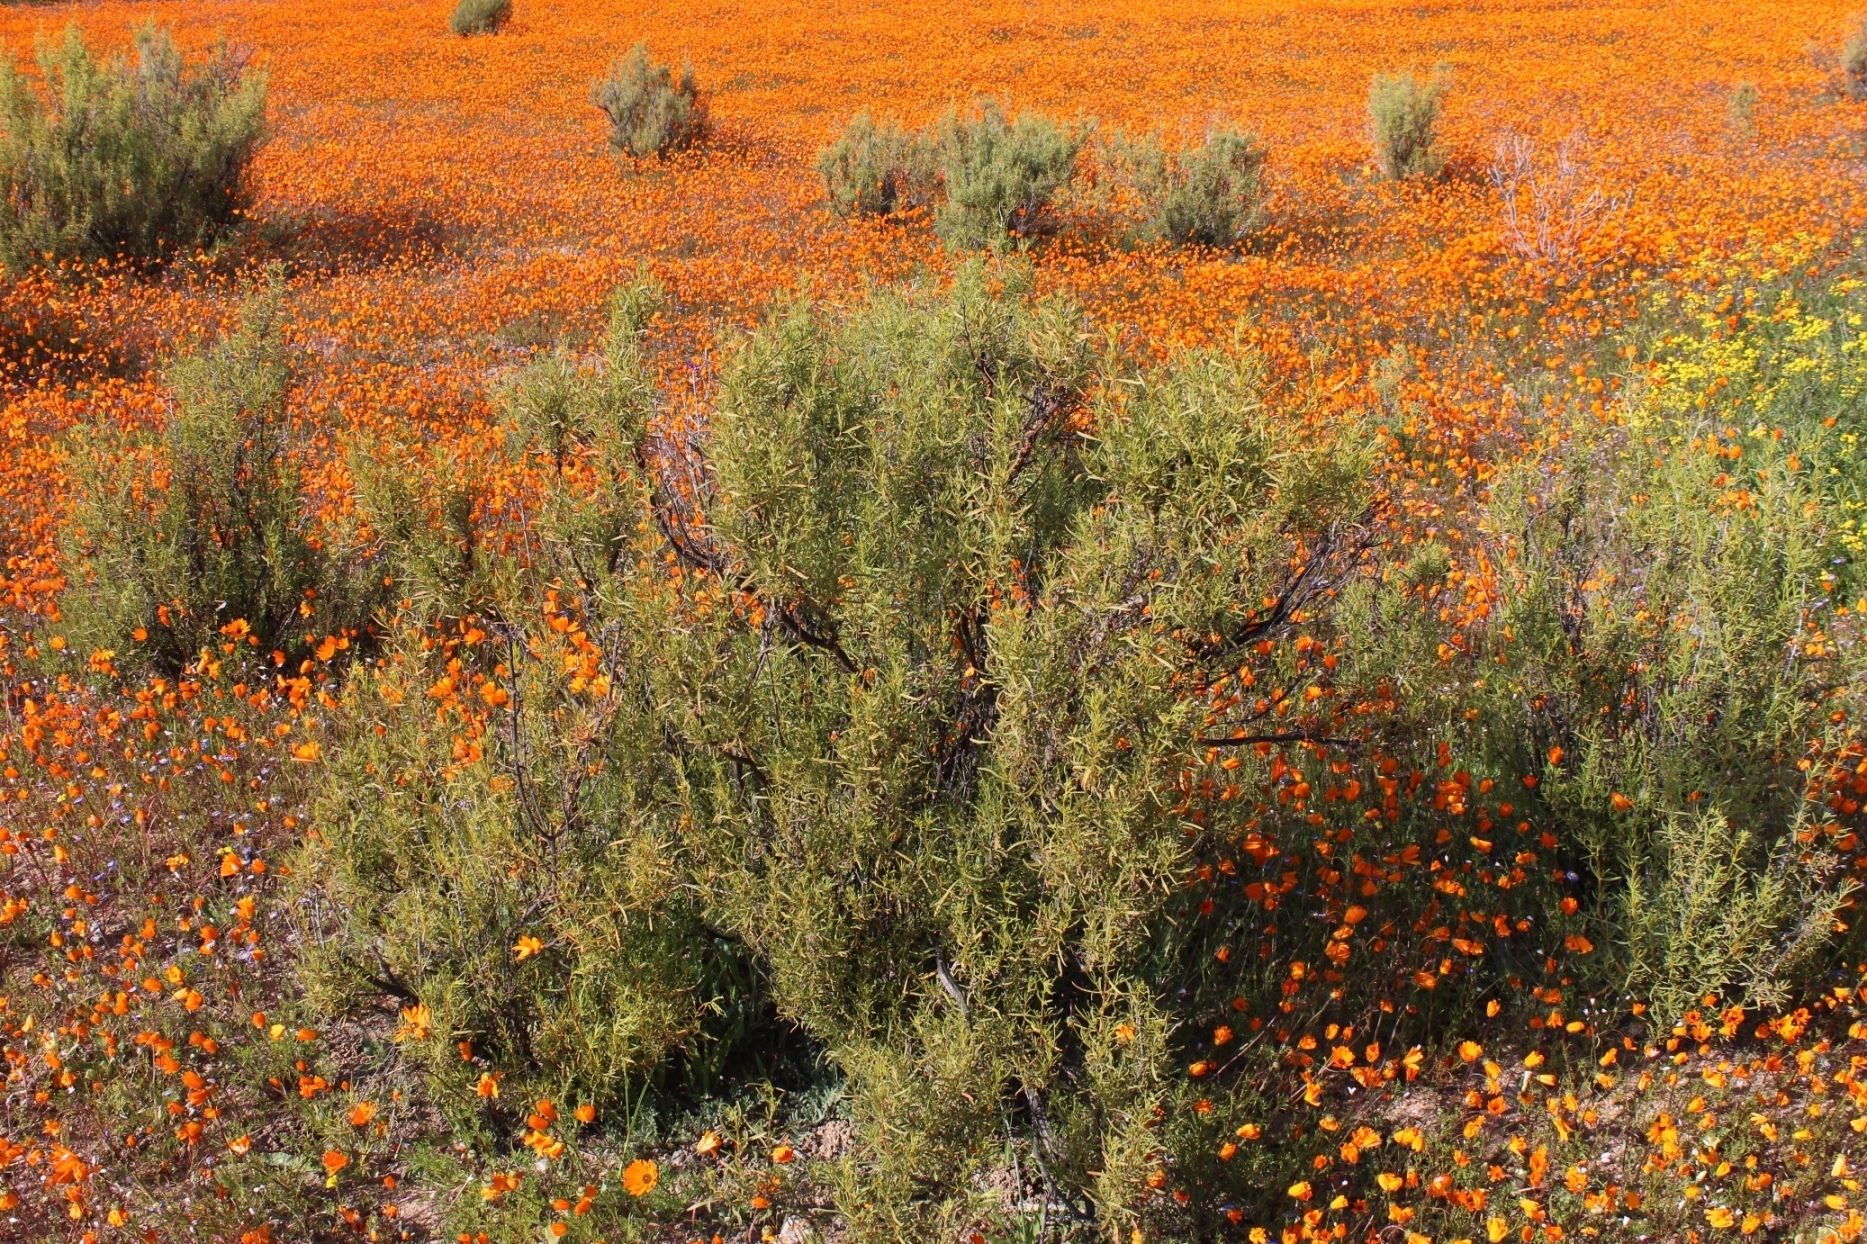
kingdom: Plantae
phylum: Tracheophyta
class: Magnoliopsida
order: Caryophyllales
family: Aizoaceae
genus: Aizoon
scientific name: Aizoon africanum
